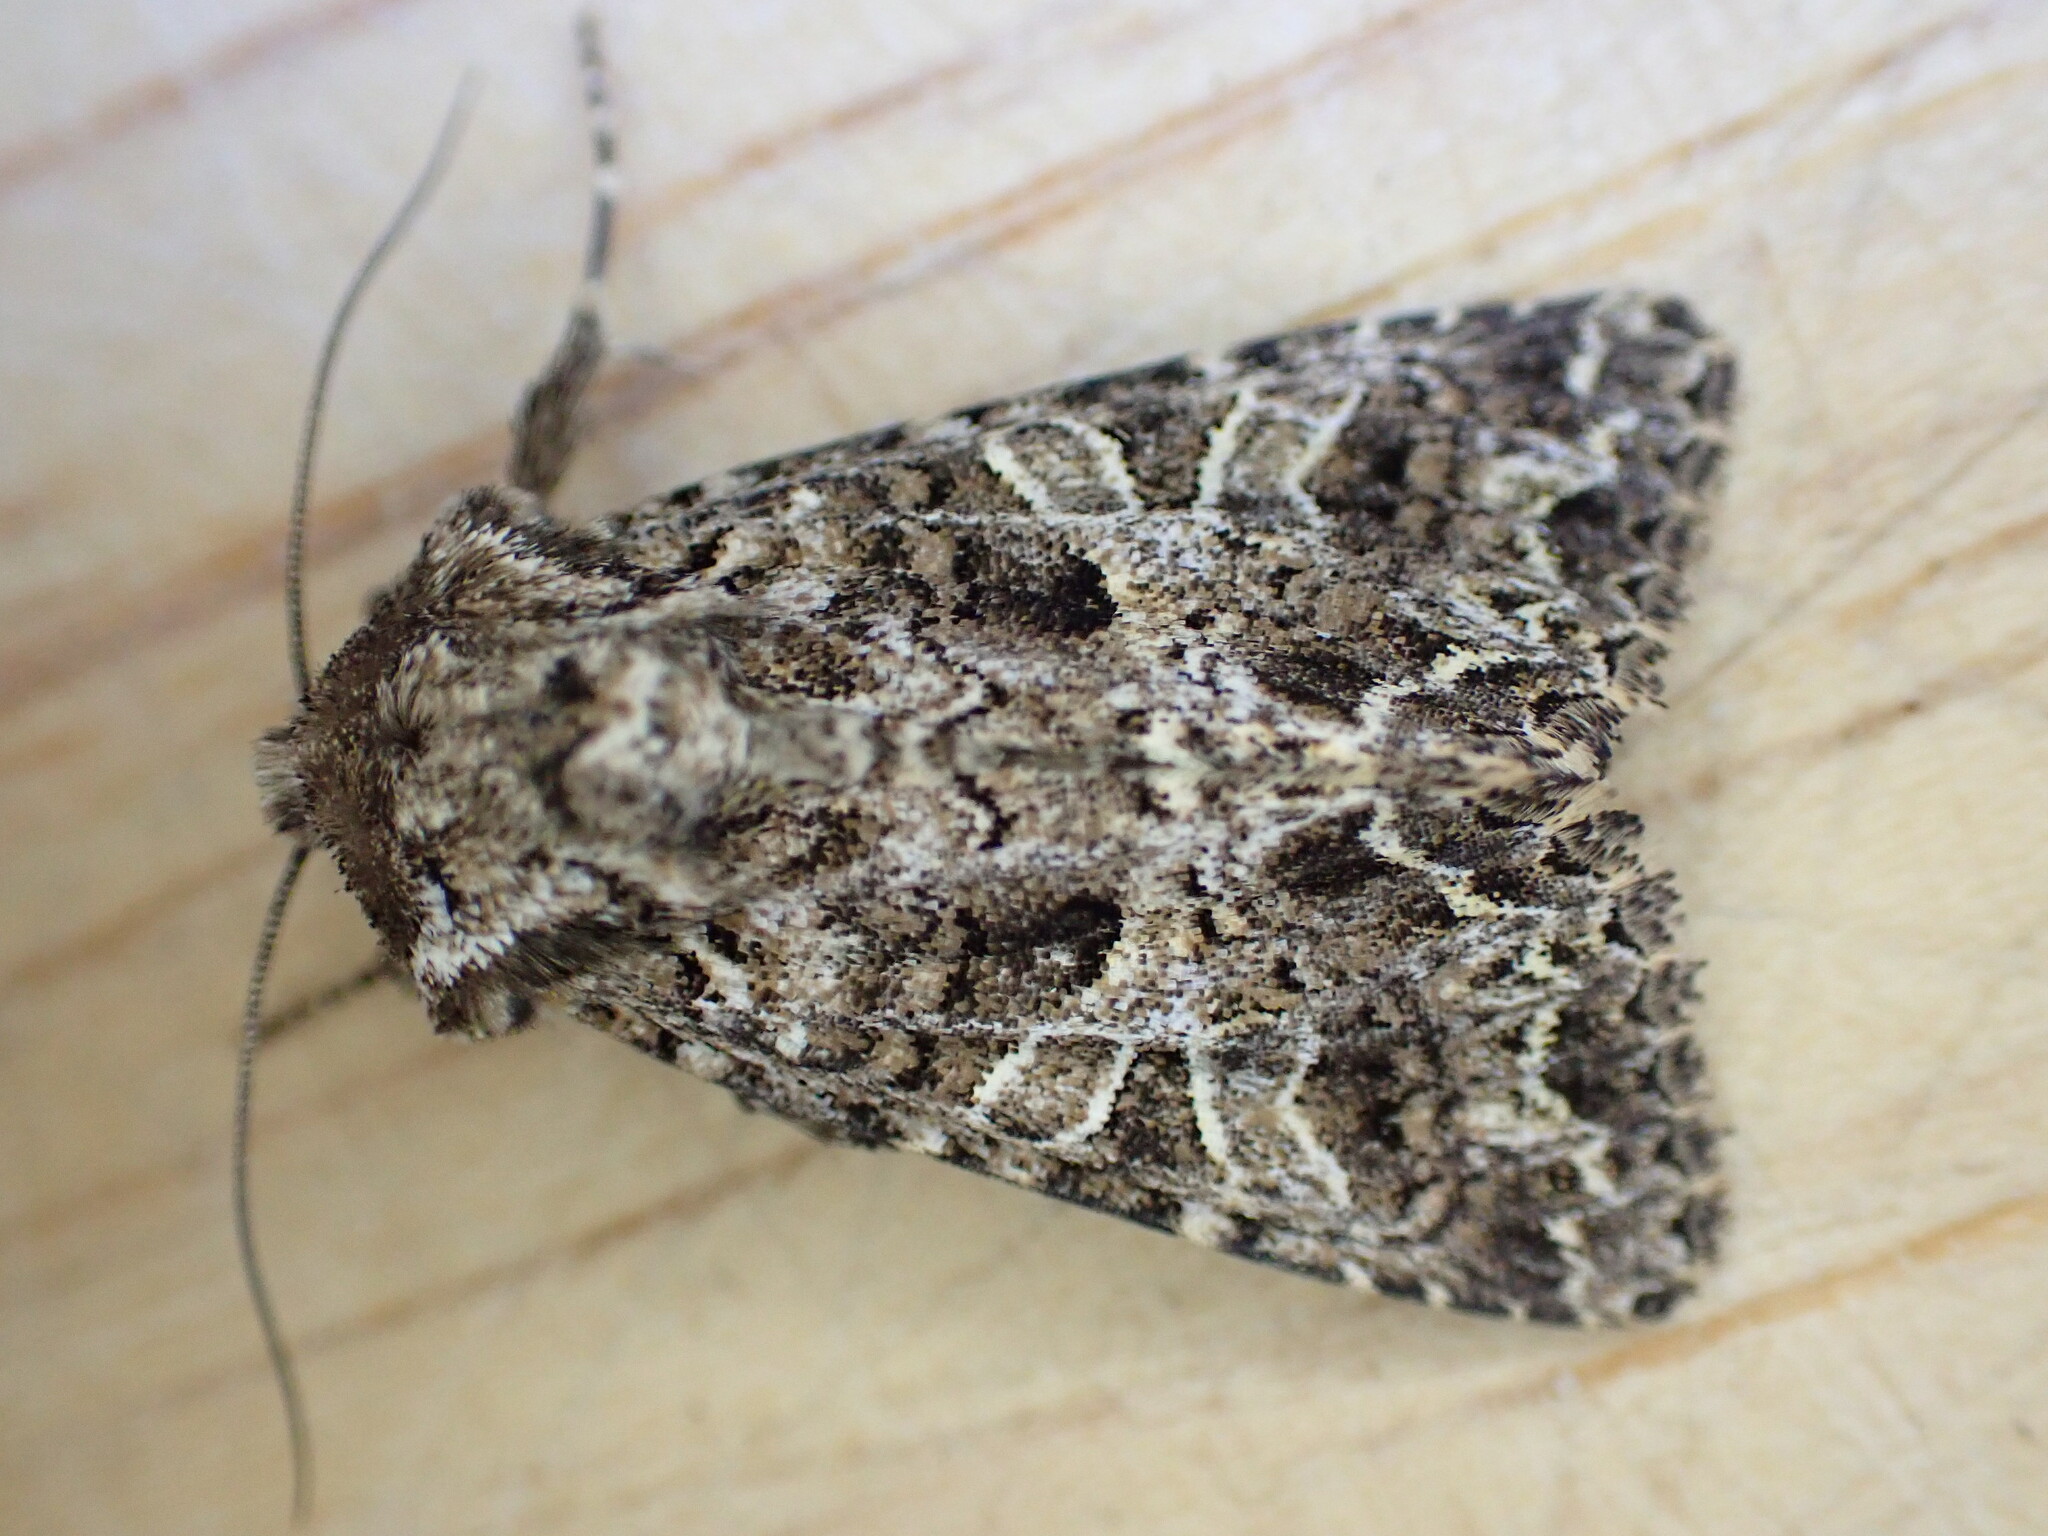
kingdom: Animalia
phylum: Arthropoda
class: Insecta
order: Lepidoptera
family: Noctuidae
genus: Hadena
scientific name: Hadena bicruris
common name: Lychnis
